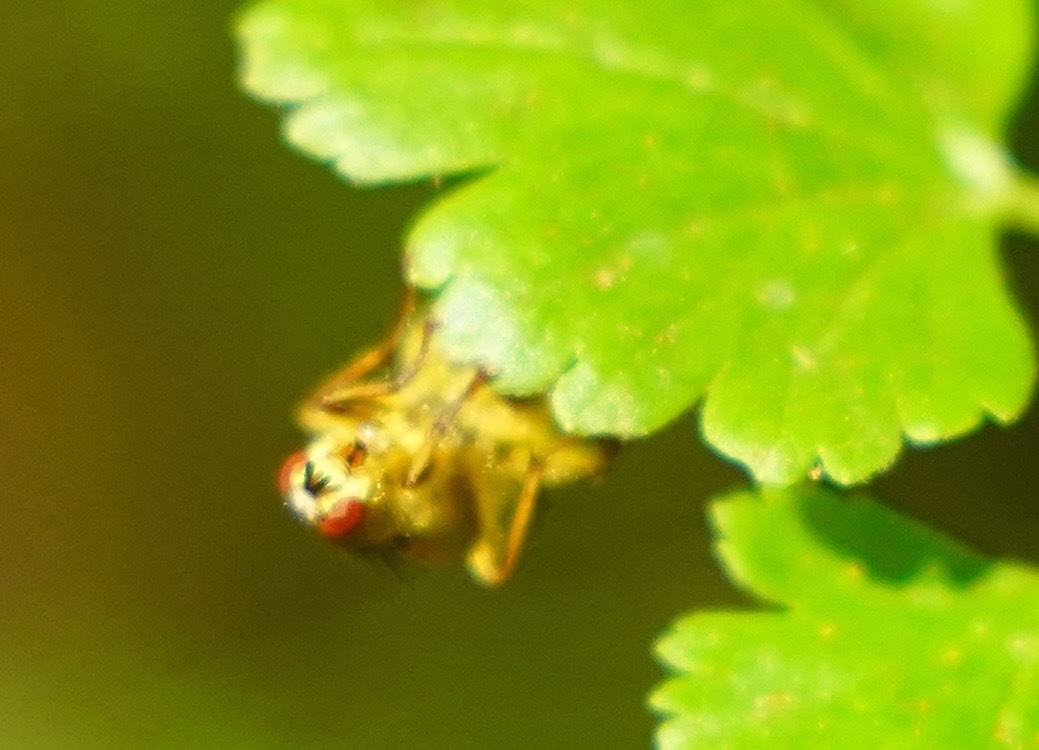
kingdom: Animalia
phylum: Arthropoda
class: Insecta
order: Diptera
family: Scathophagidae
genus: Scathophaga
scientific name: Scathophaga stercoraria
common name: Yellow dung fly
